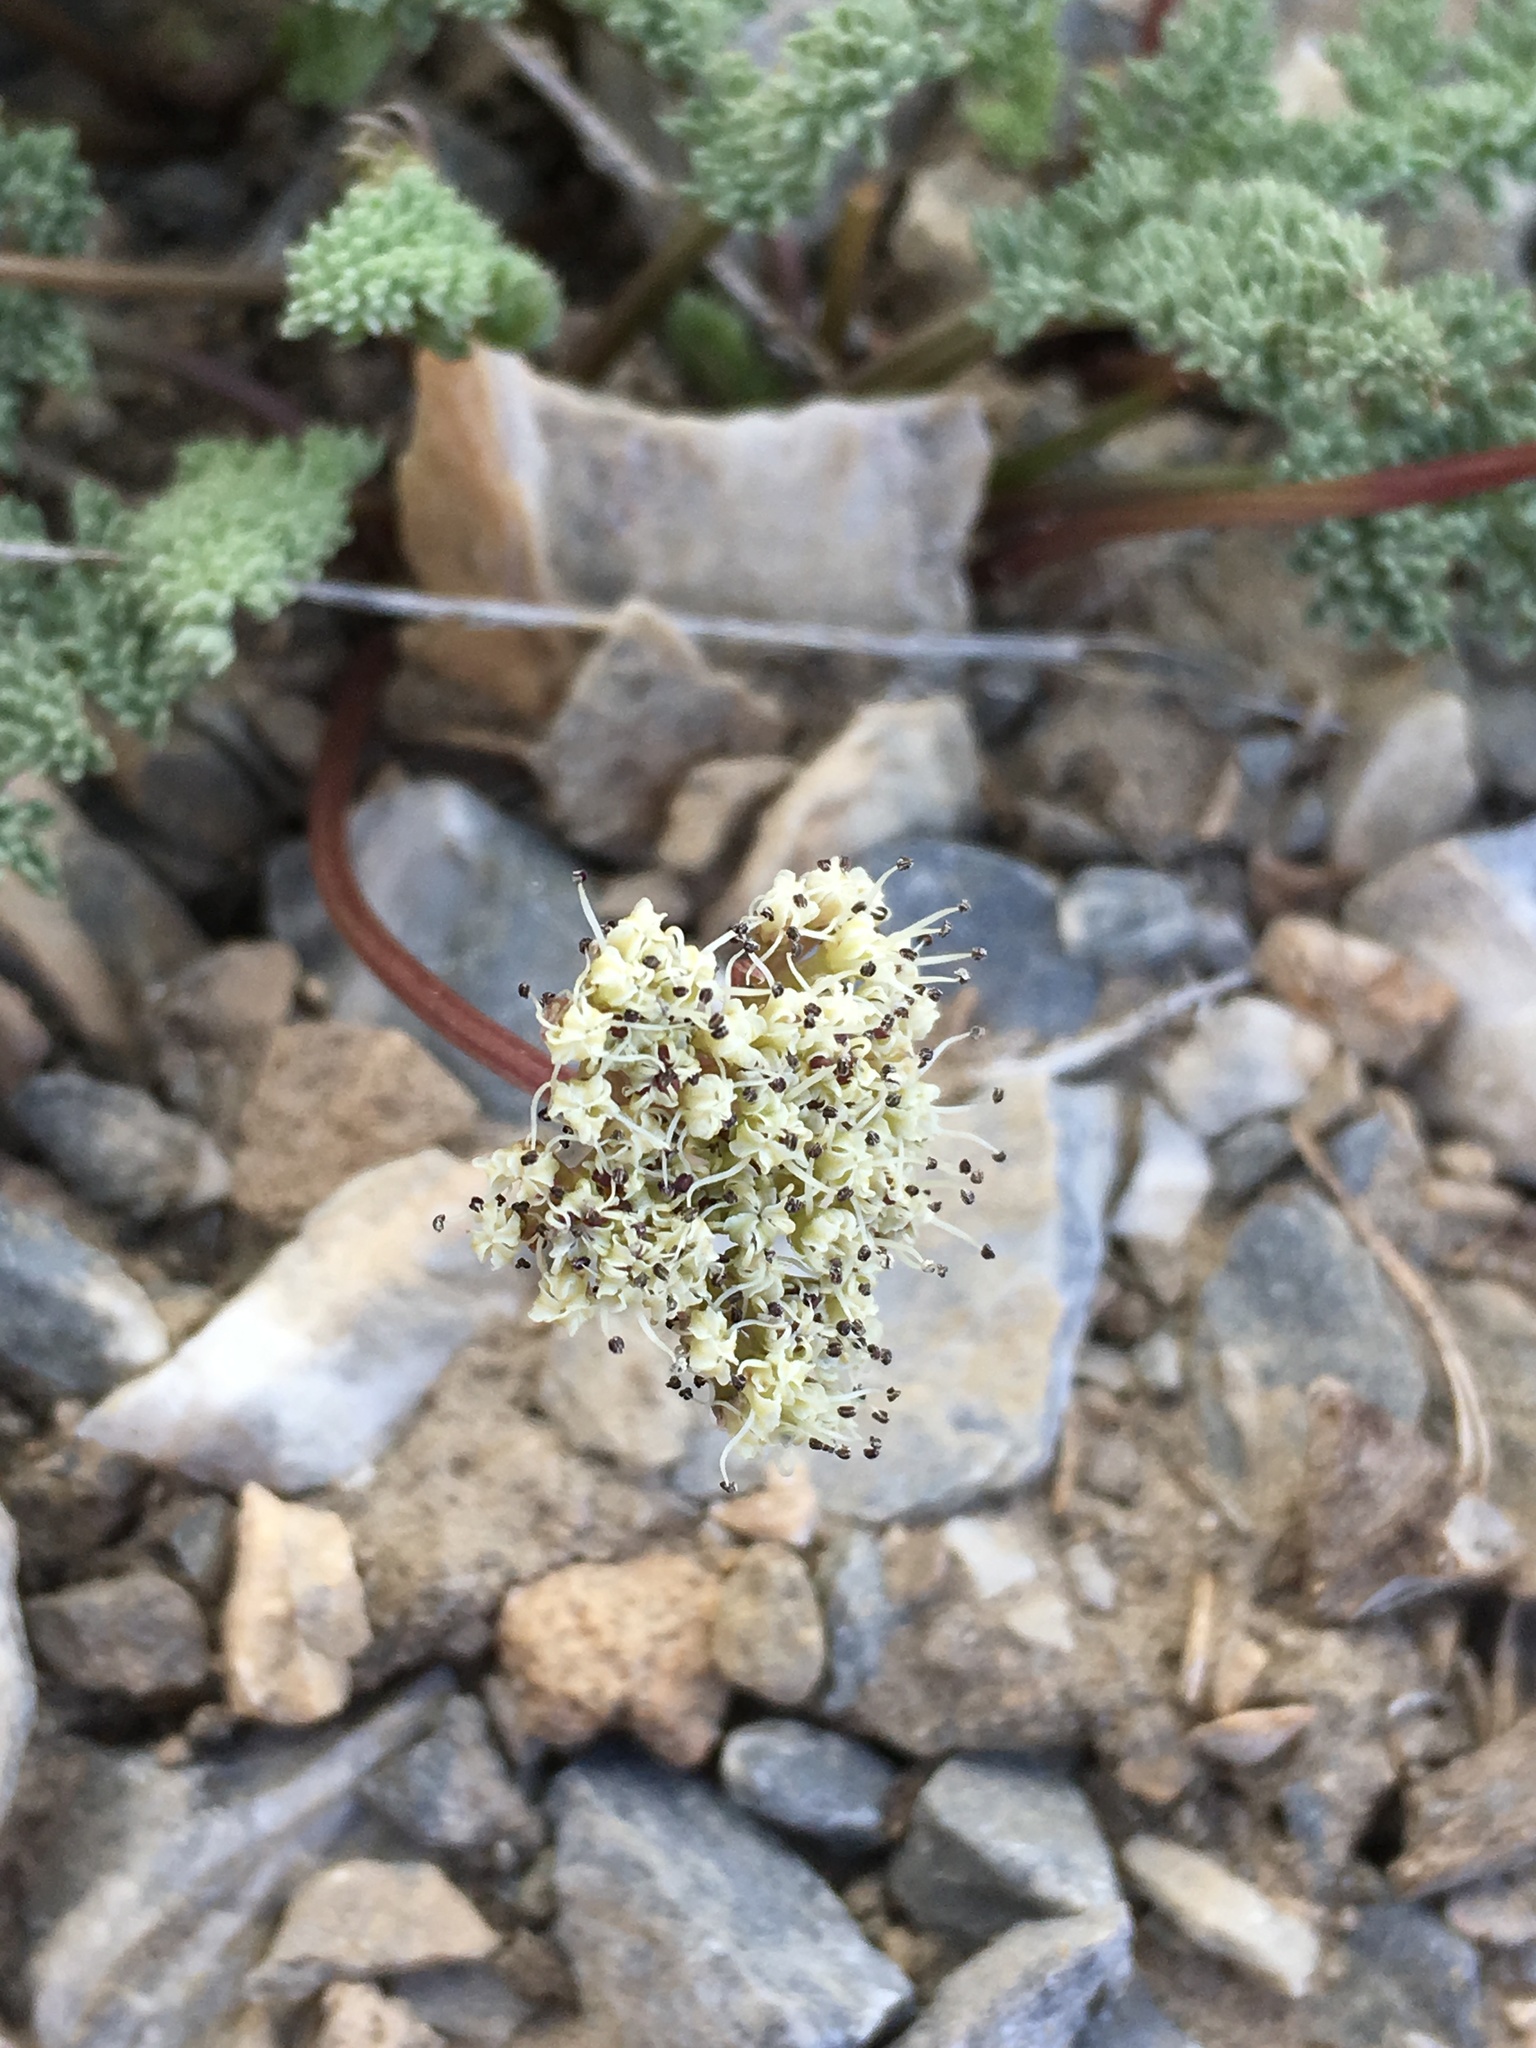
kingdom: Plantae
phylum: Tracheophyta
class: Magnoliopsida
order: Apiales
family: Apiaceae
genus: Aulospermum
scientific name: Aulospermum aboriginum
